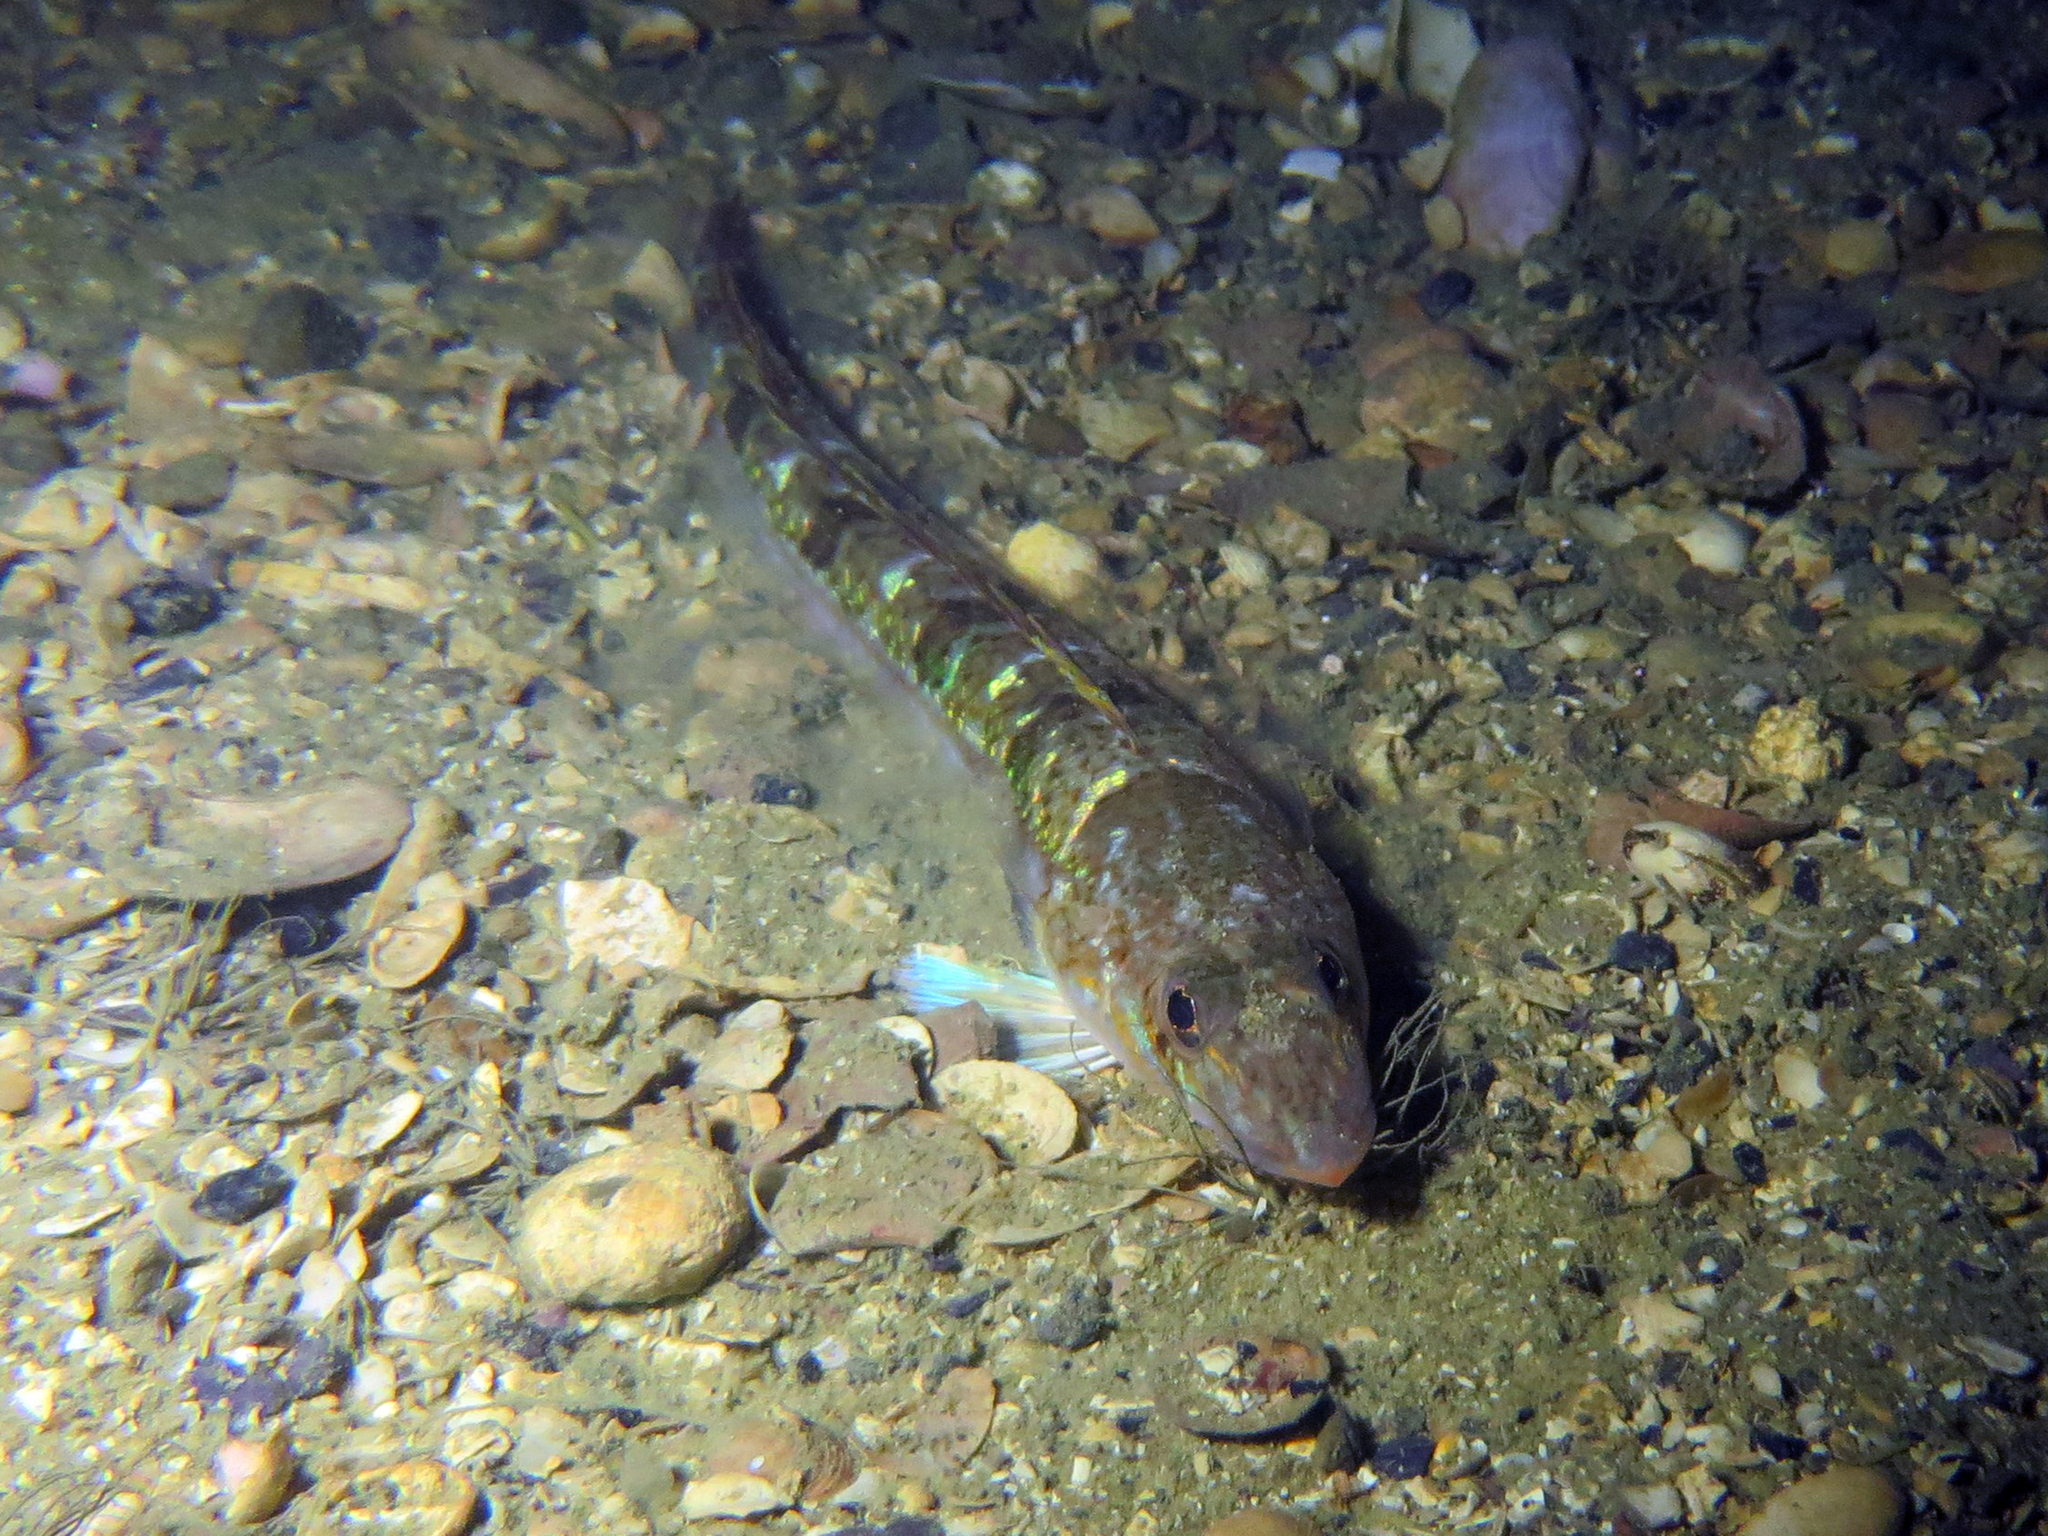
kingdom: Animalia
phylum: Chordata
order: Perciformes
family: Percophidae
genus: Hemerocoetes
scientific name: Hemerocoetes monopterygius
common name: Opalfish
